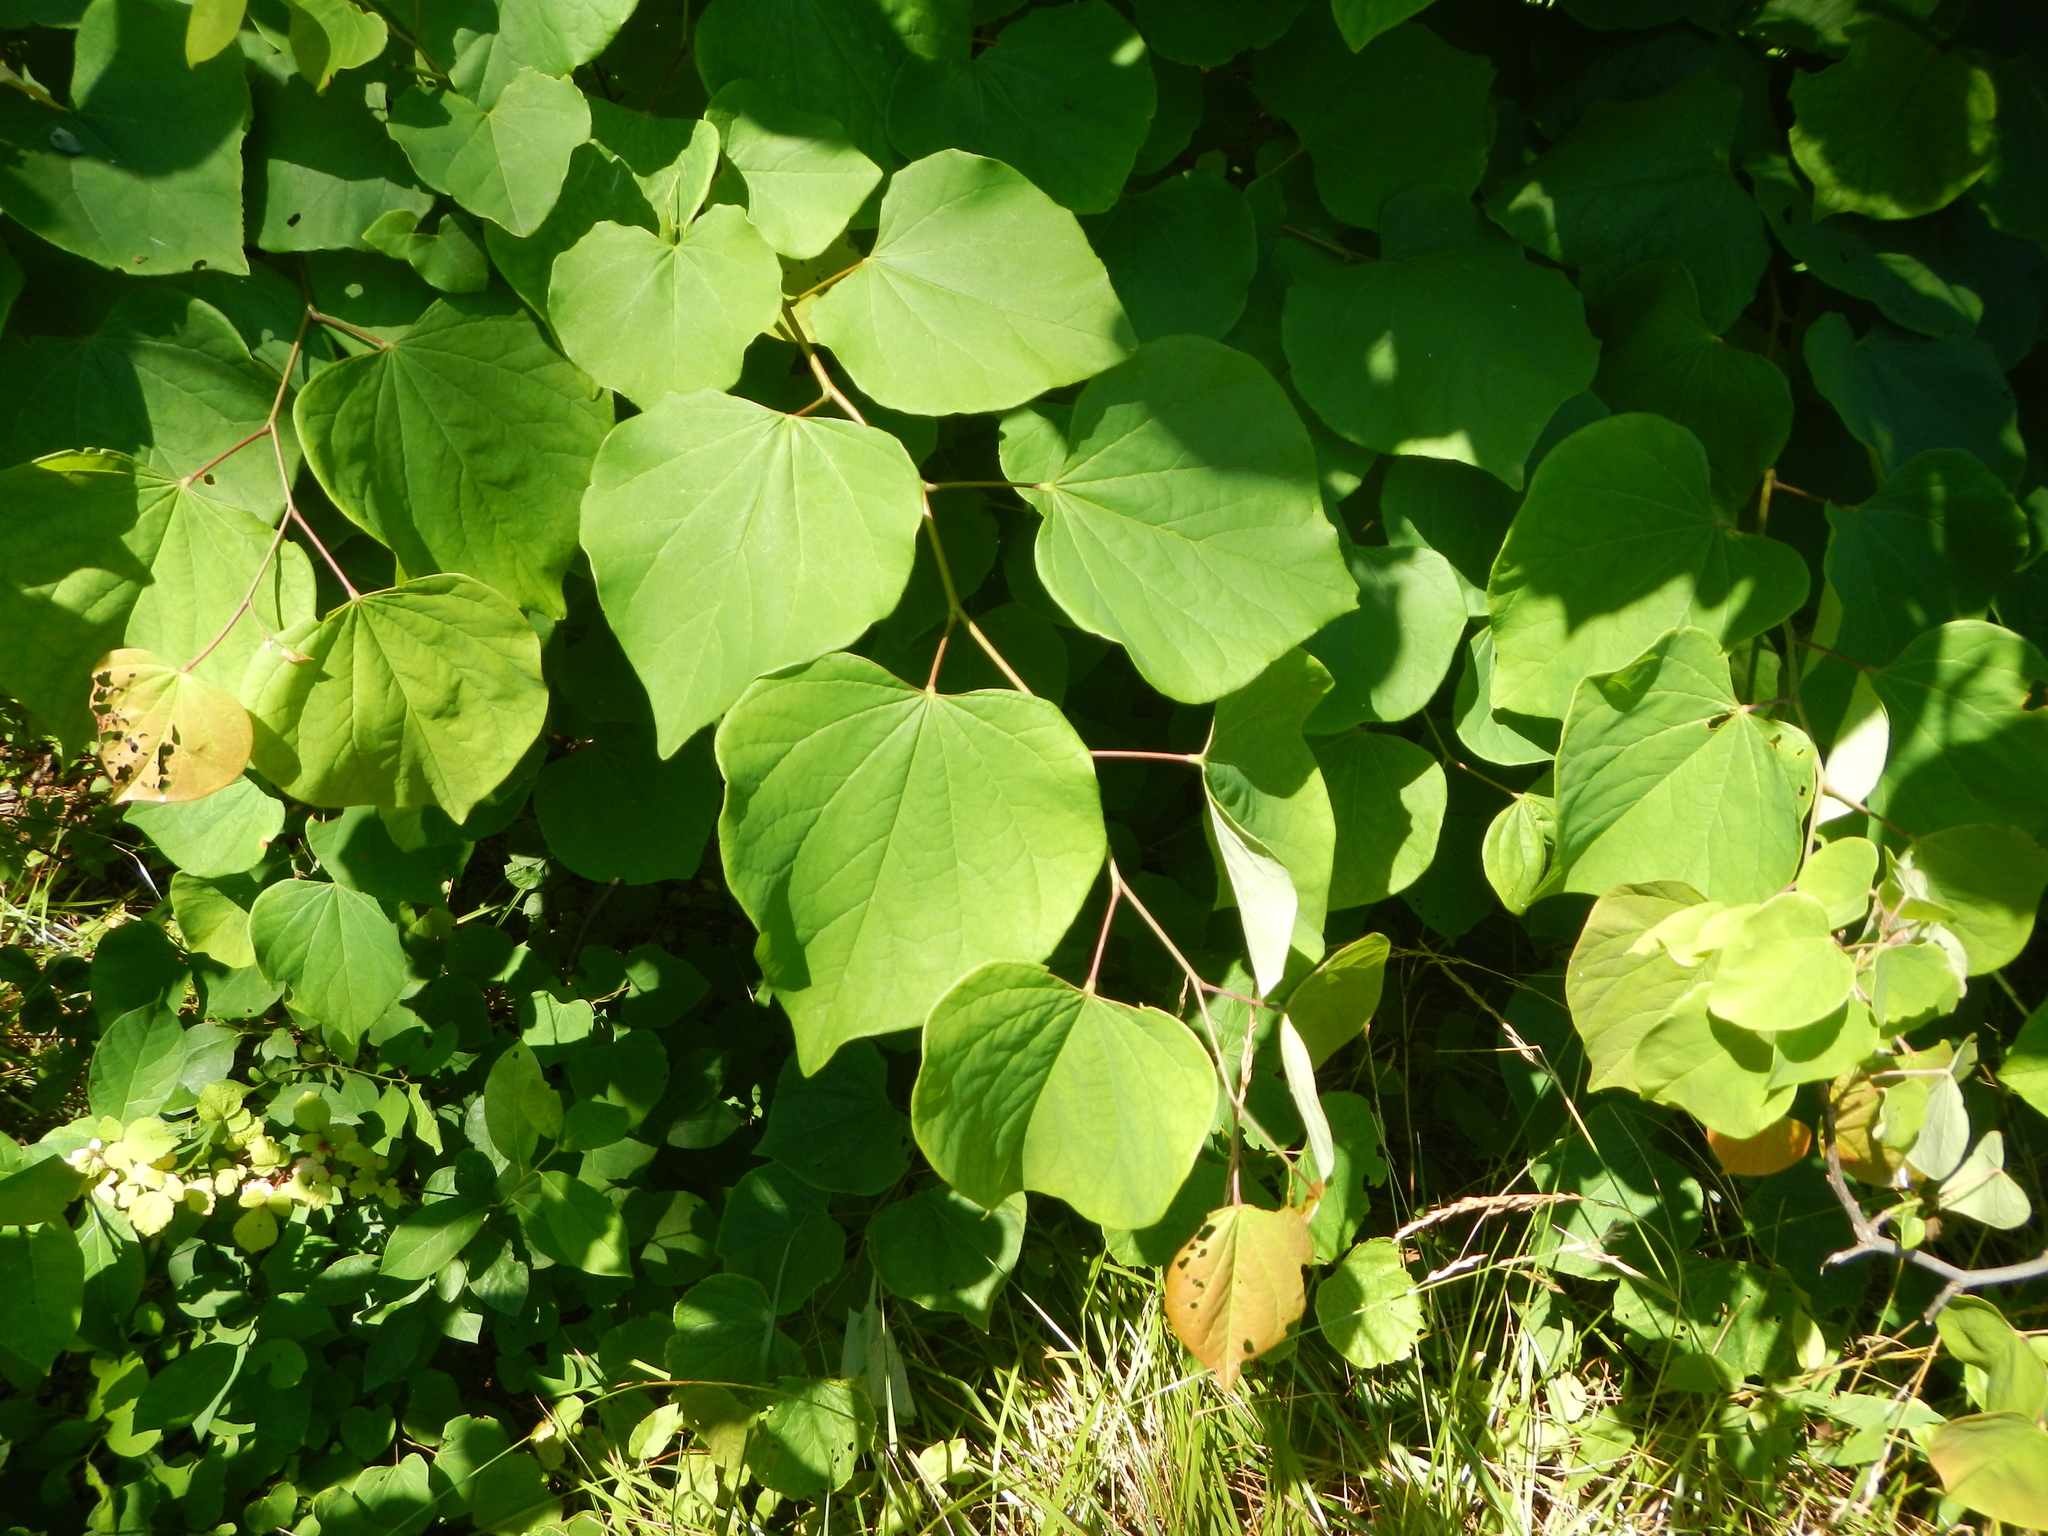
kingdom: Plantae
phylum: Tracheophyta
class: Magnoliopsida
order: Fabales
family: Fabaceae
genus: Cercis
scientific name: Cercis canadensis
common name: Eastern redbud
